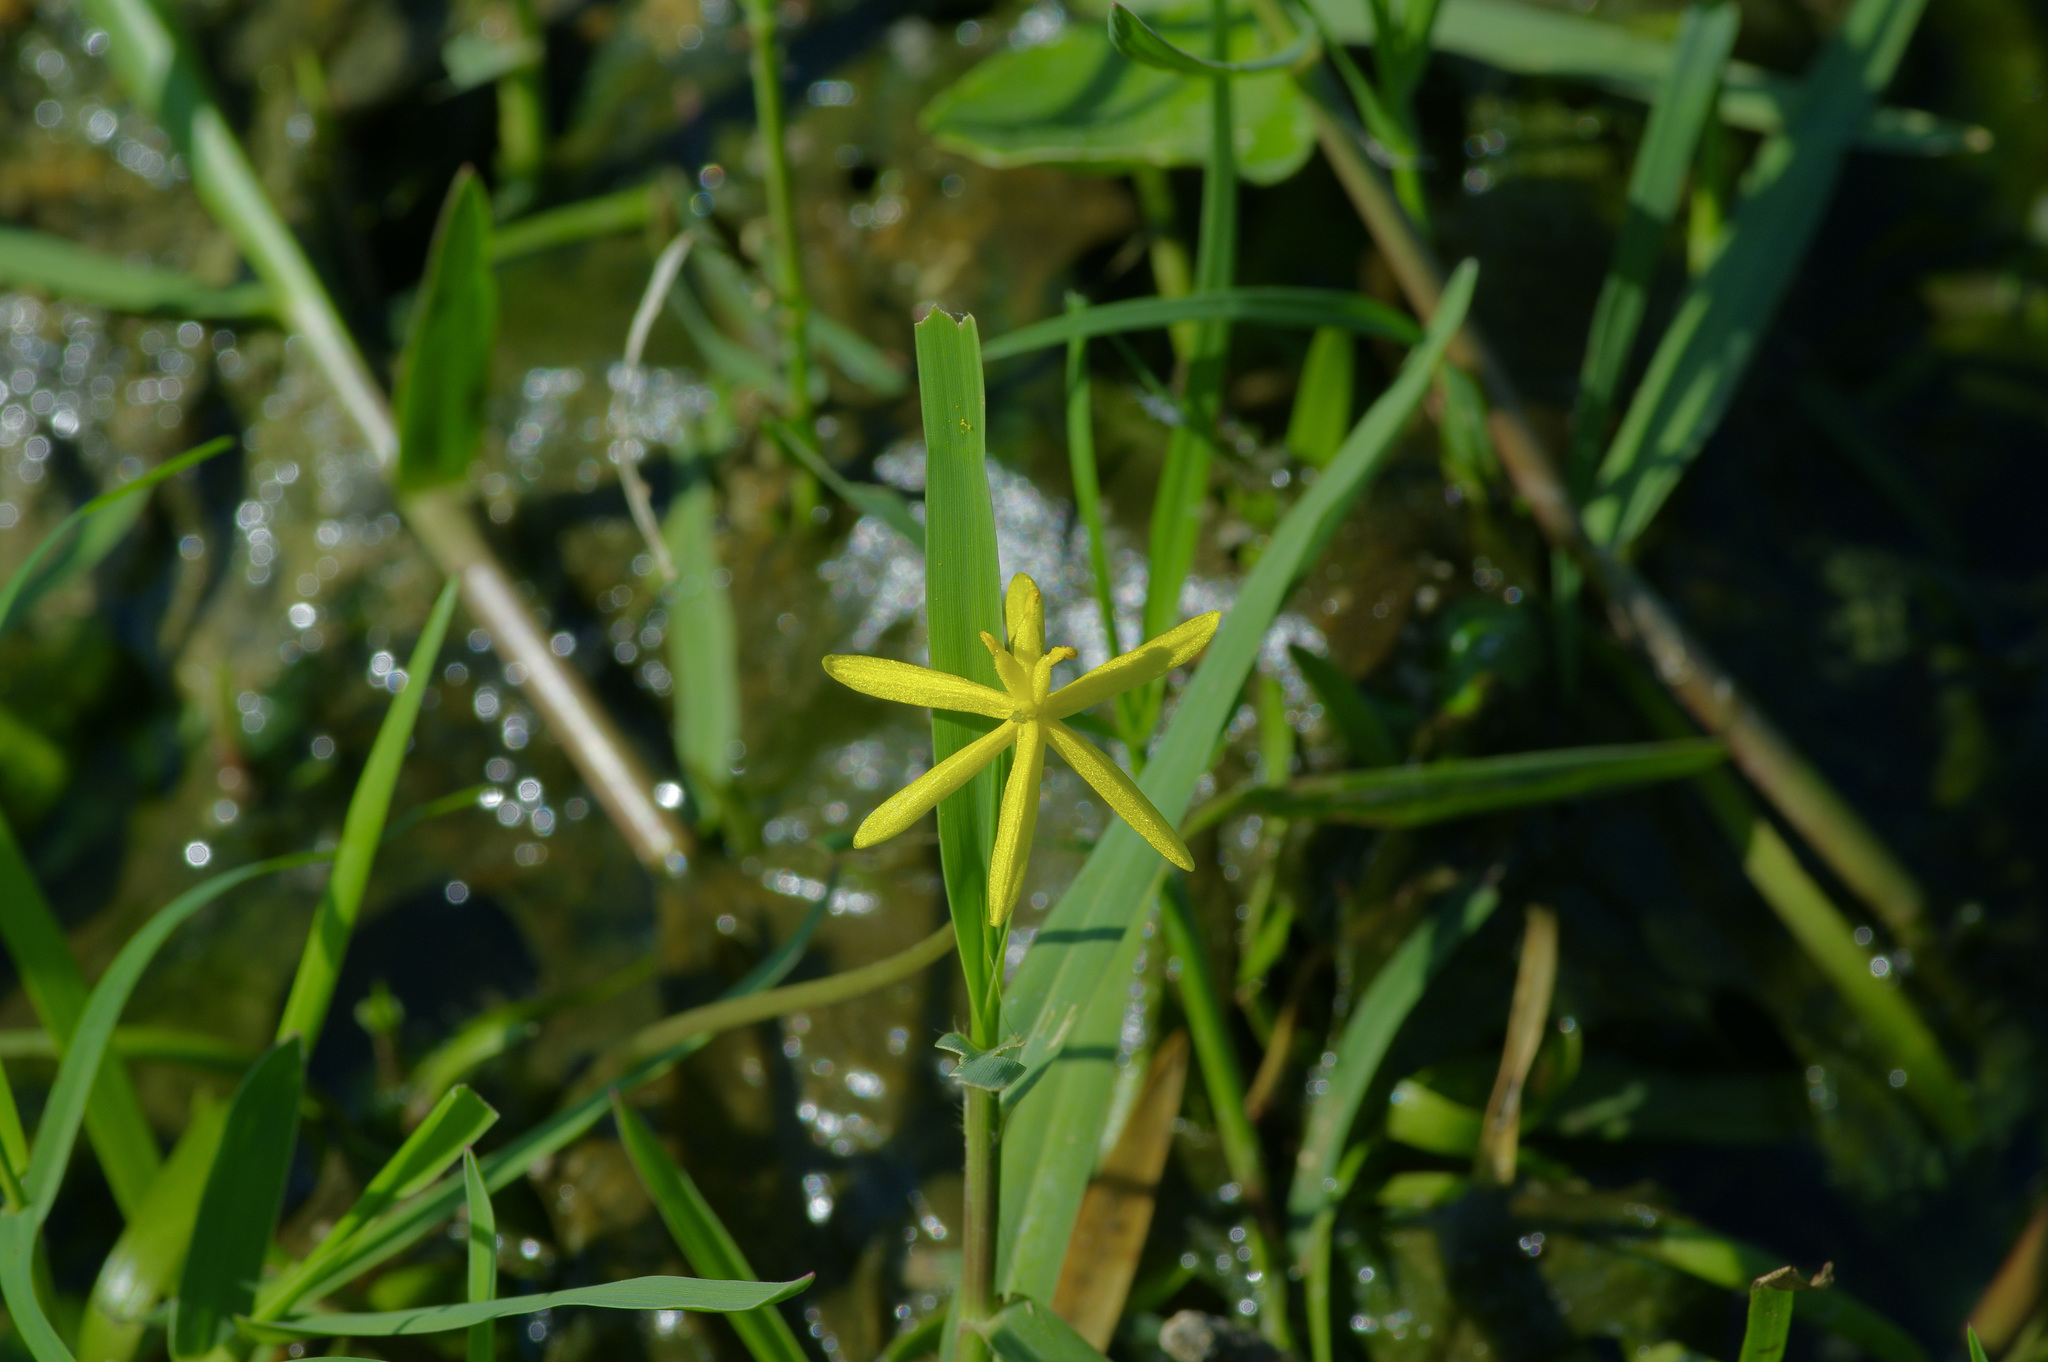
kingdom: Plantae
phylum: Tracheophyta
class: Liliopsida
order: Commelinales
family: Pontederiaceae
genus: Heteranthera
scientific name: Heteranthera dubia
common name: Grass-leaved mud plantain
